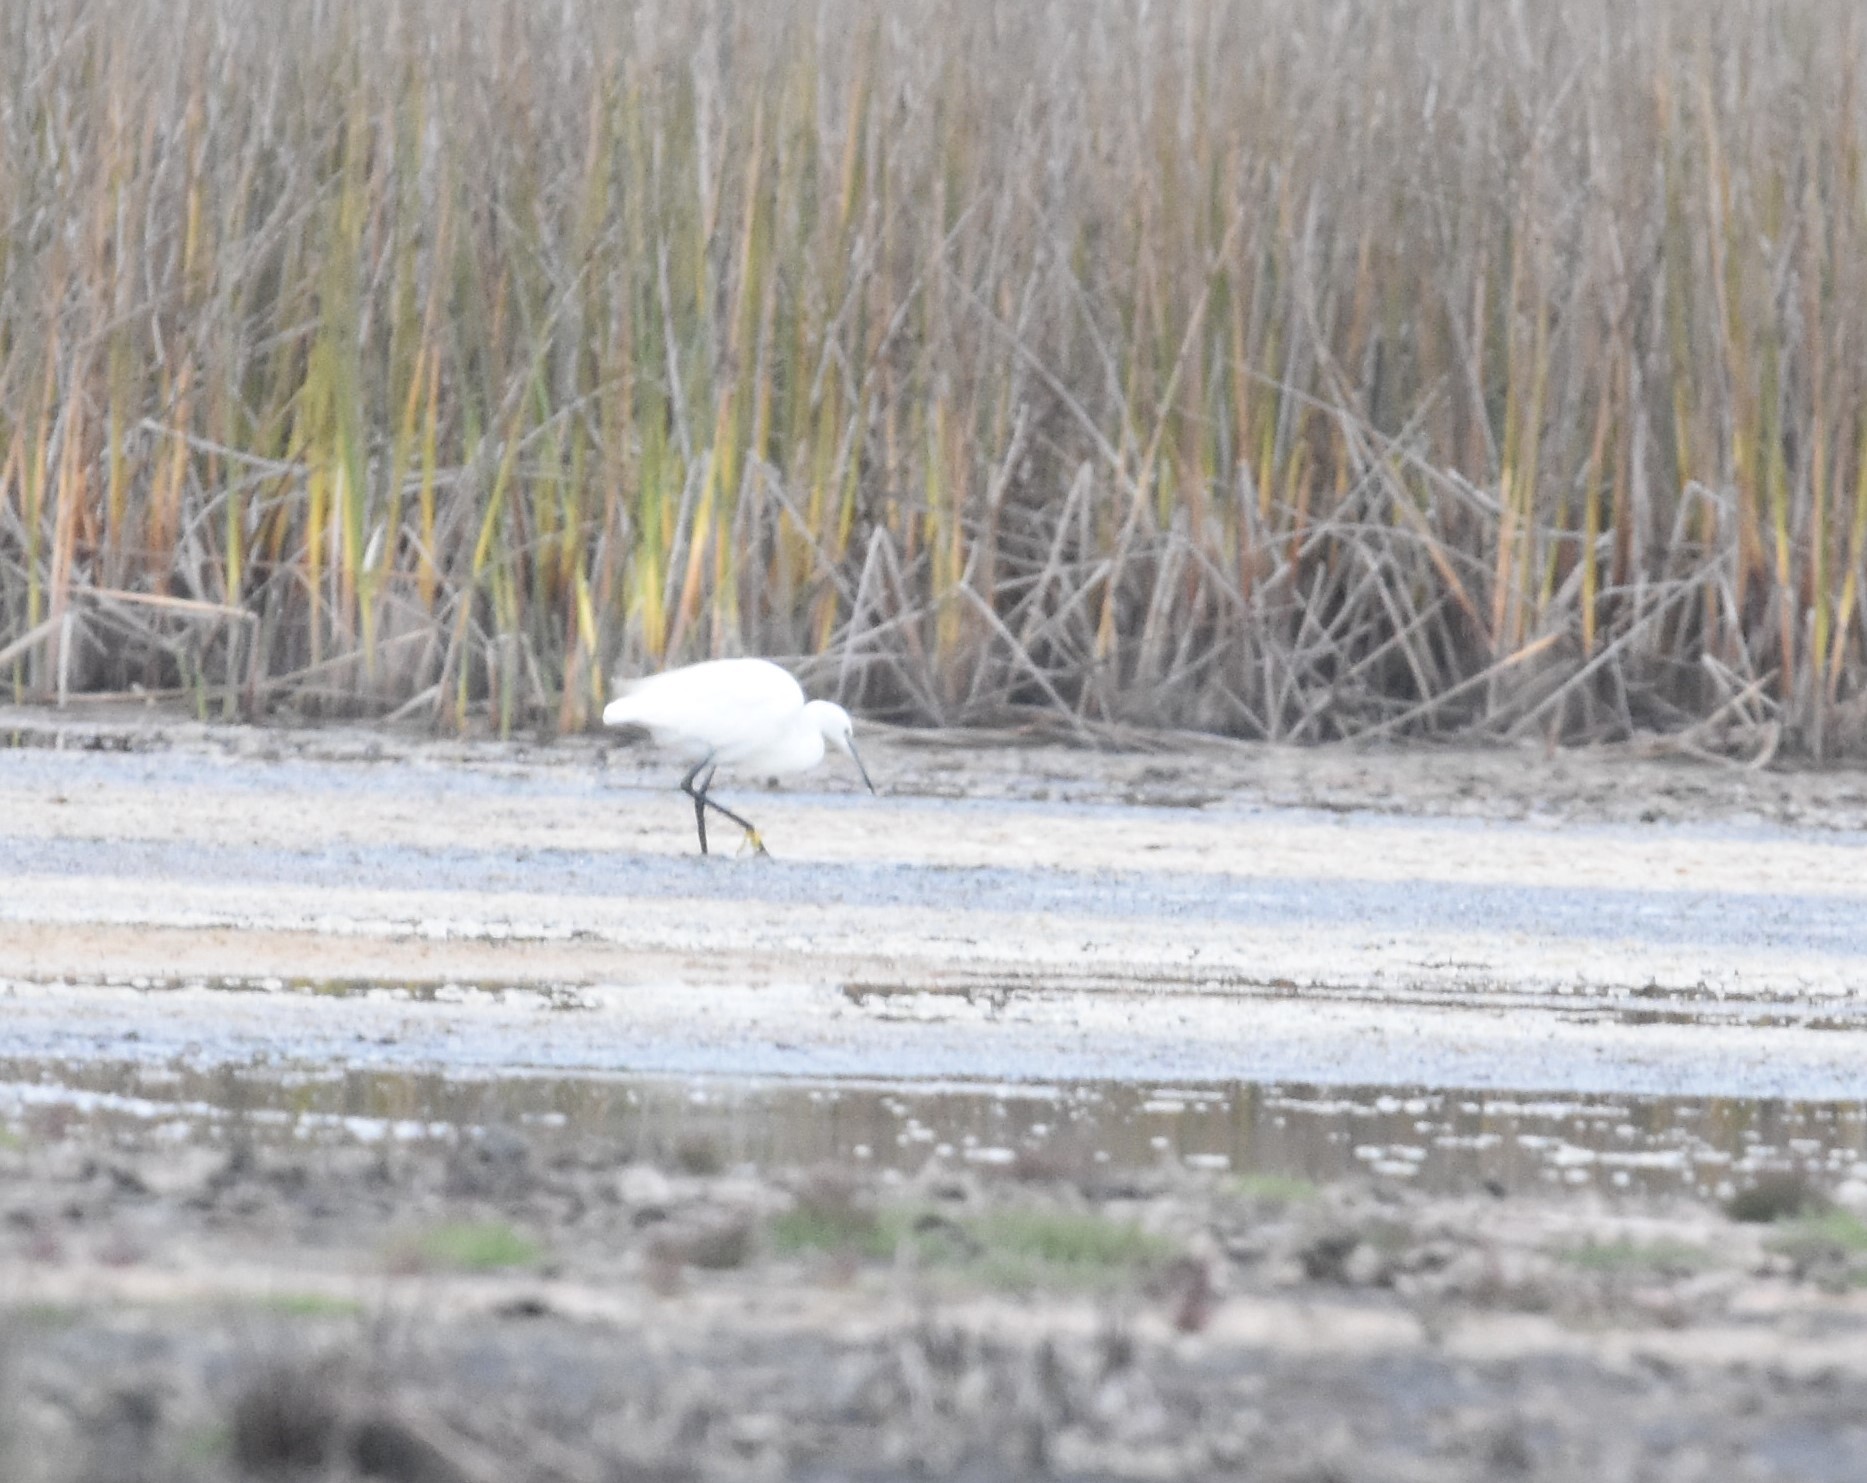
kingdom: Animalia
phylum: Chordata
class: Aves
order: Pelecaniformes
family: Ardeidae
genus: Egretta
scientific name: Egretta garzetta
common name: Little egret
